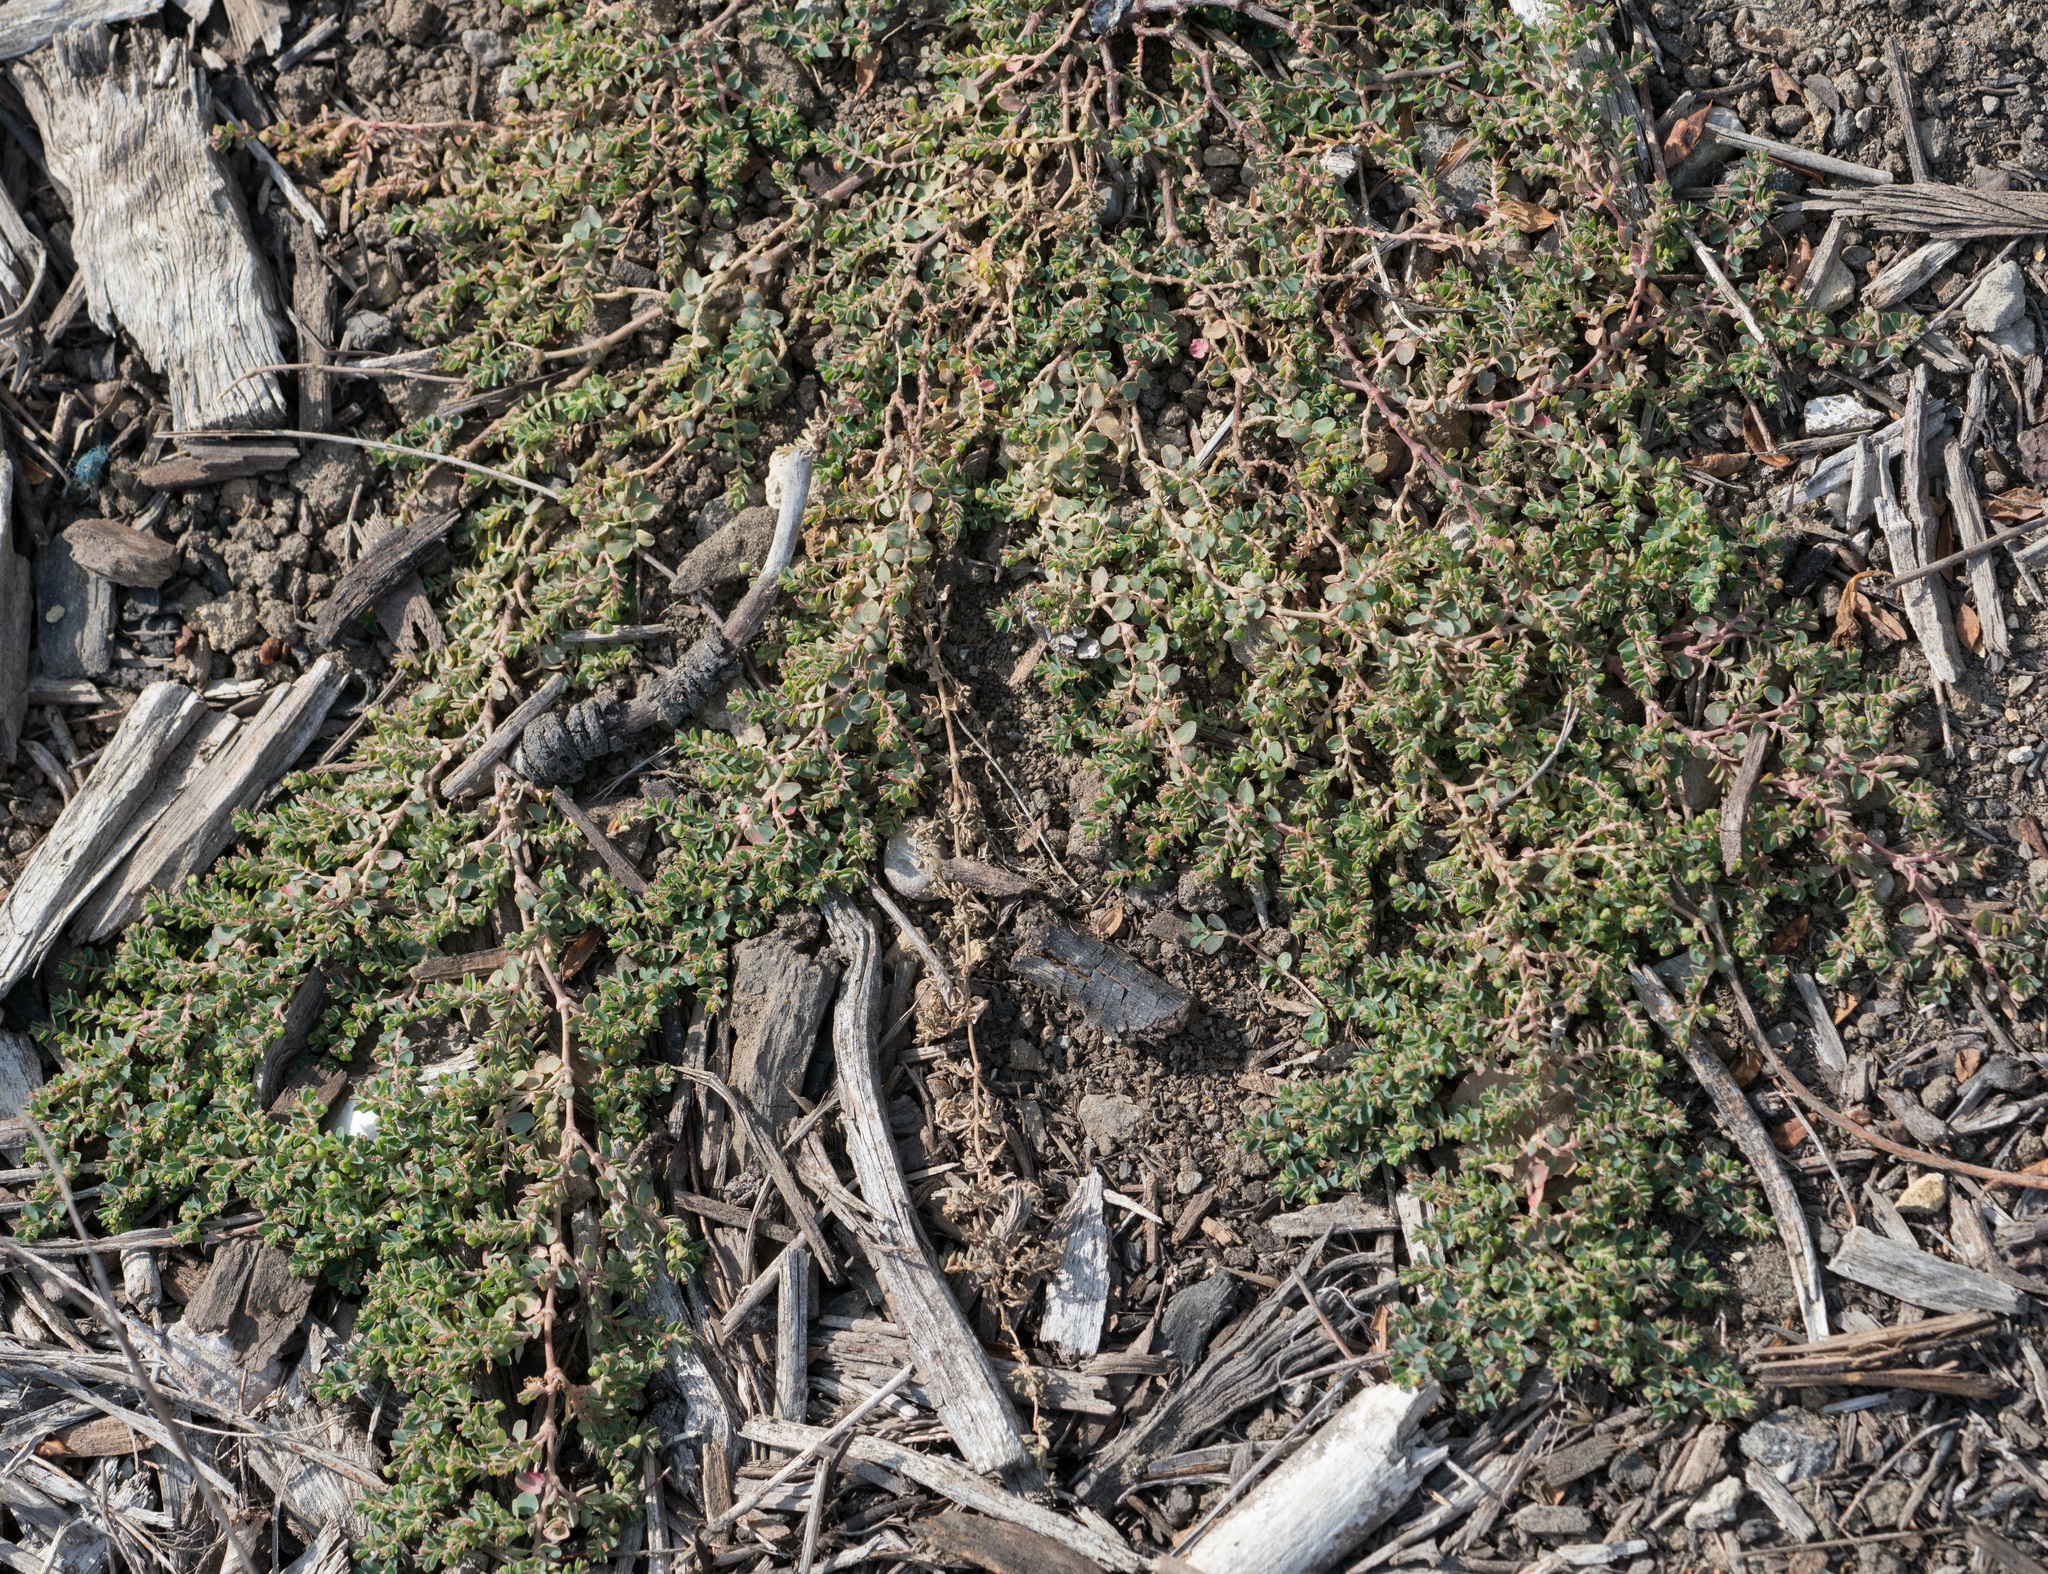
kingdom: Plantae
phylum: Tracheophyta
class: Magnoliopsida
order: Malpighiales
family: Euphorbiaceae
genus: Euphorbia
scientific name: Euphorbia serpens
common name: Matted sandmat
